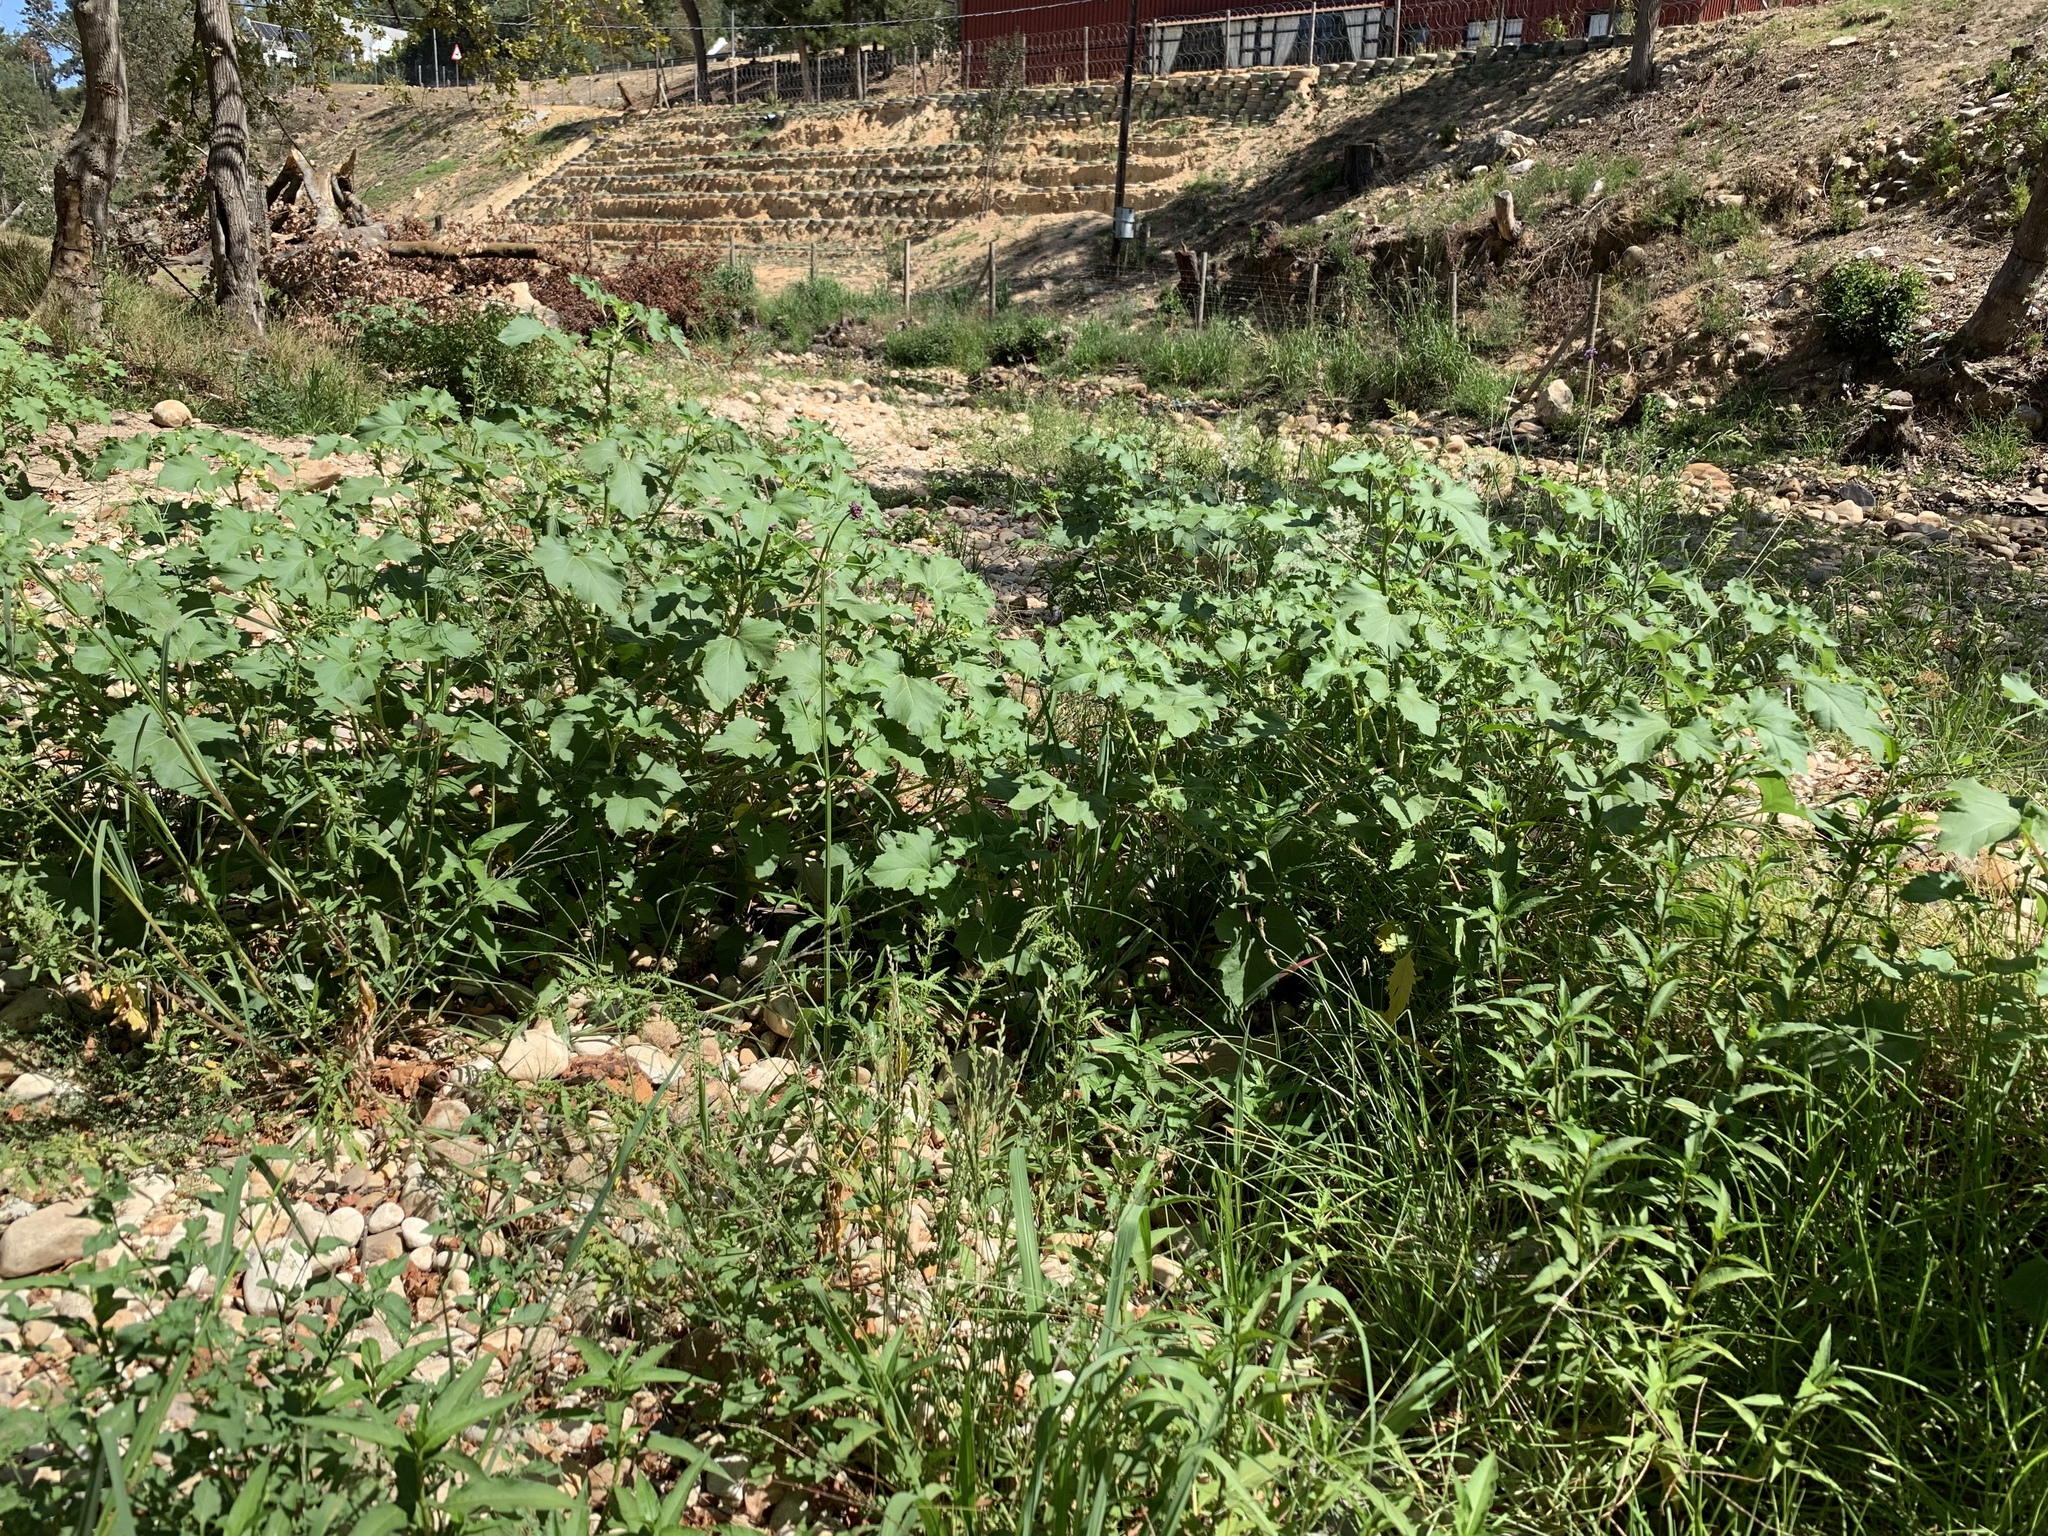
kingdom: Plantae
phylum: Tracheophyta
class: Magnoliopsida
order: Asterales
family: Asteraceae
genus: Xanthium
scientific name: Xanthium strumarium
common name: Rough cocklebur
